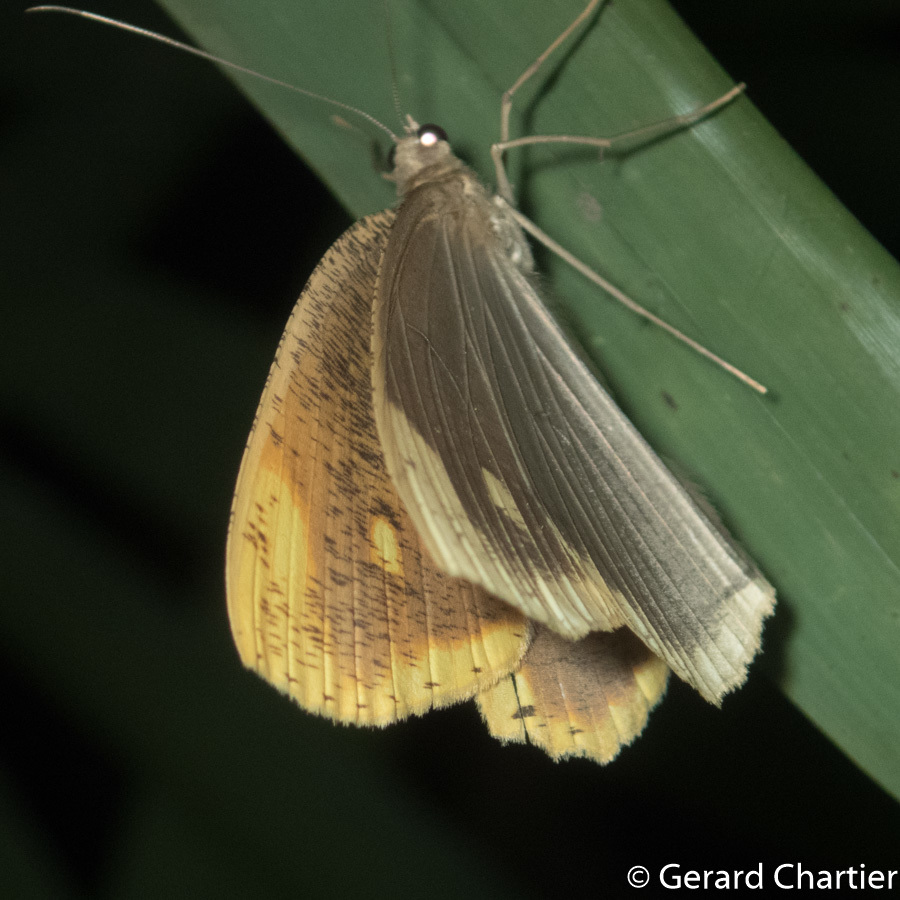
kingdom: Animalia
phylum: Arthropoda
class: Insecta
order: Lepidoptera
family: Geometridae
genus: Pareumelea
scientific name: Pareumelea hortensiata
